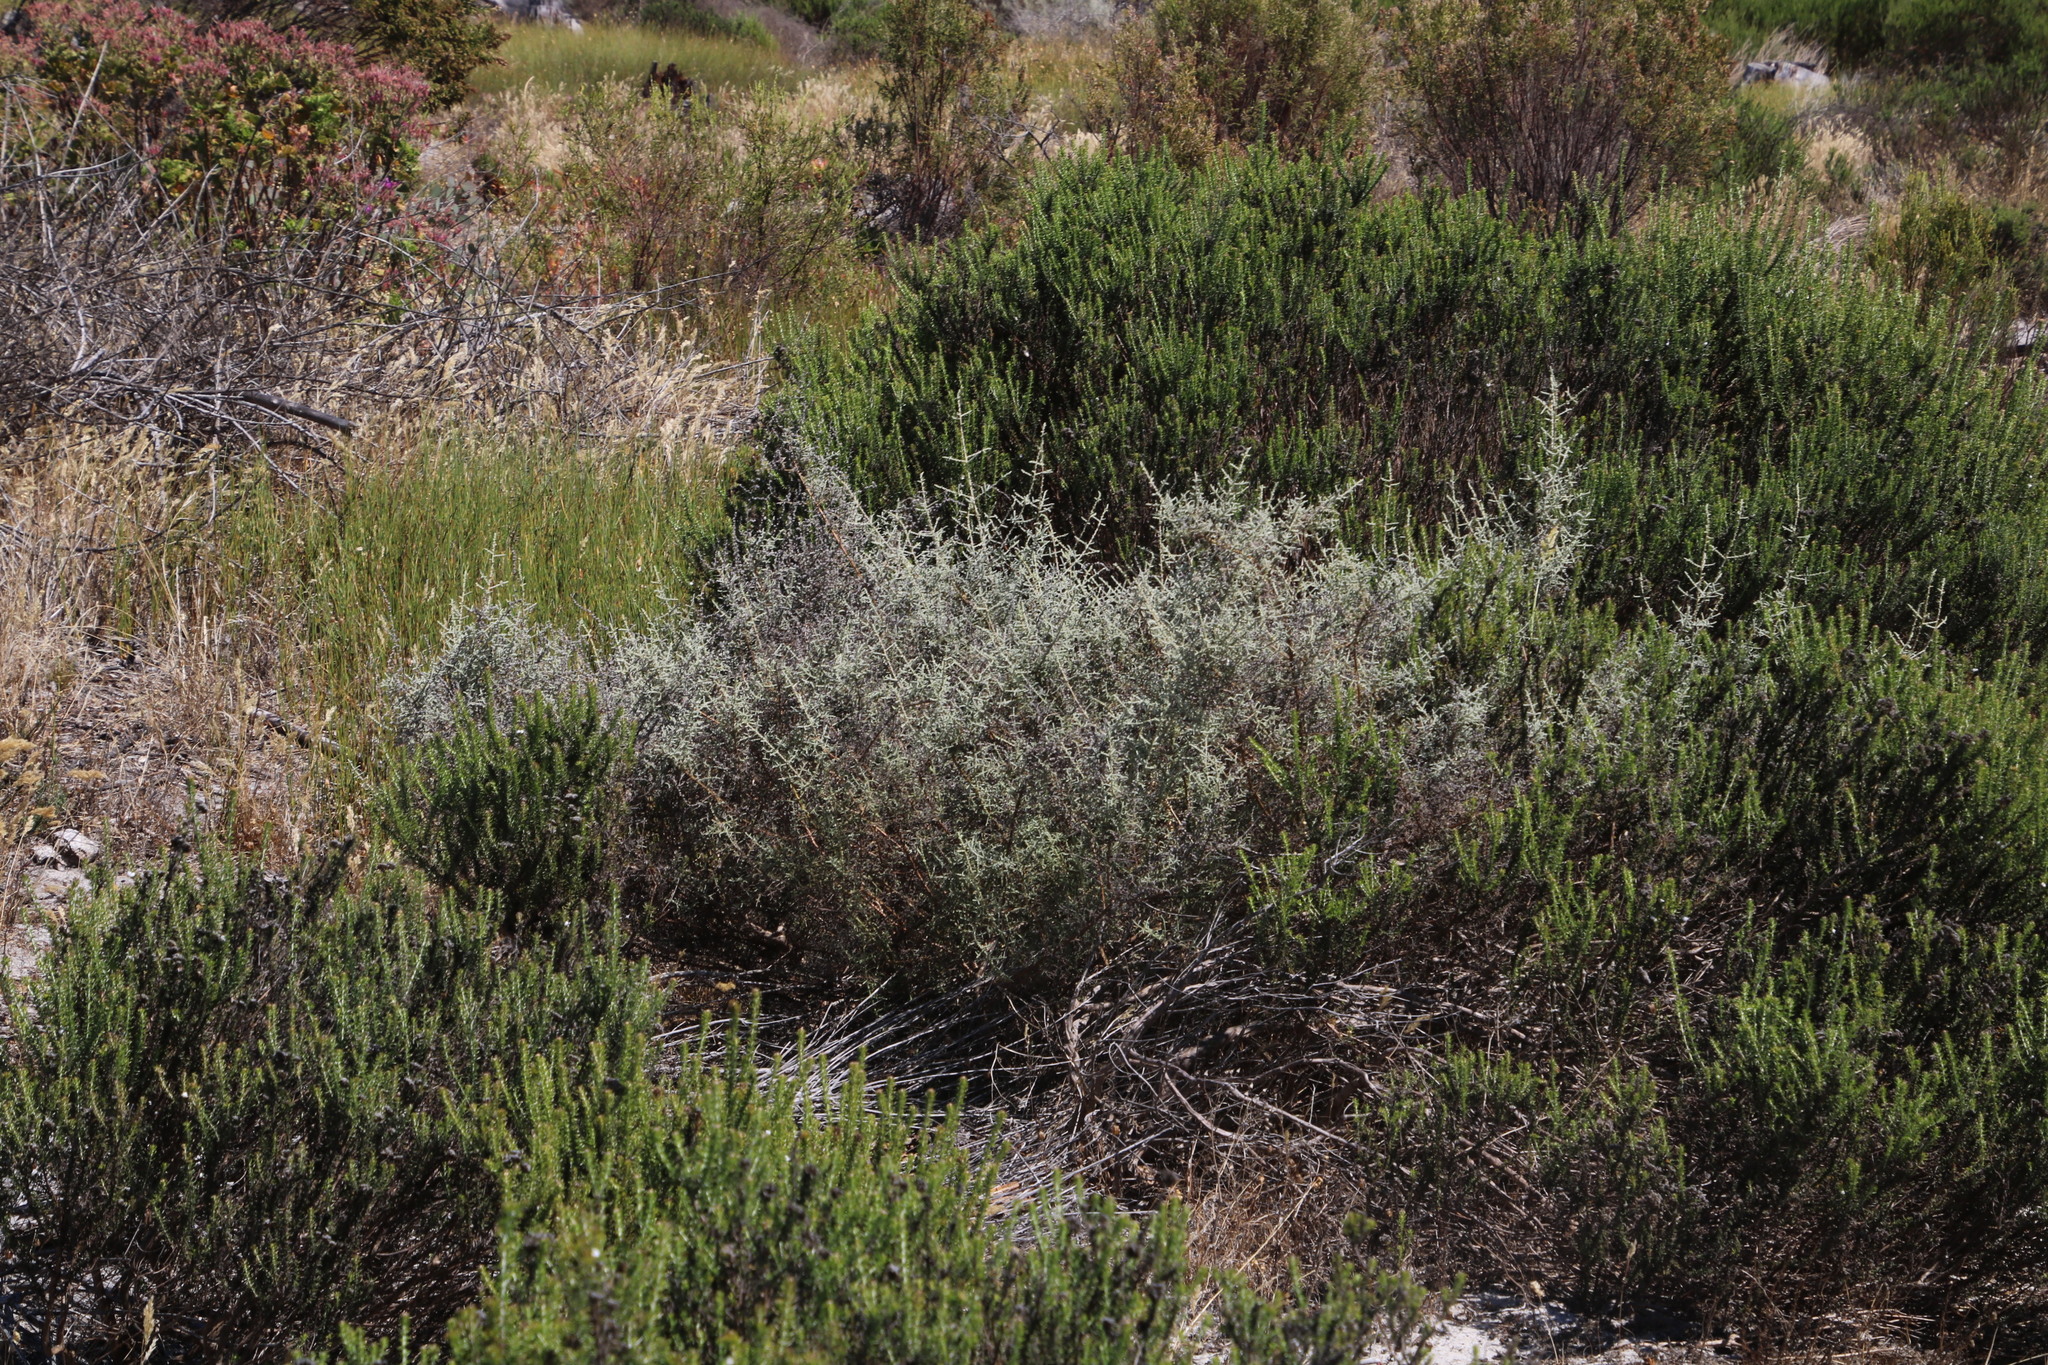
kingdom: Plantae
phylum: Tracheophyta
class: Magnoliopsida
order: Asterales
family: Asteraceae
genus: Seriphium
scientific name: Seriphium plumosum
